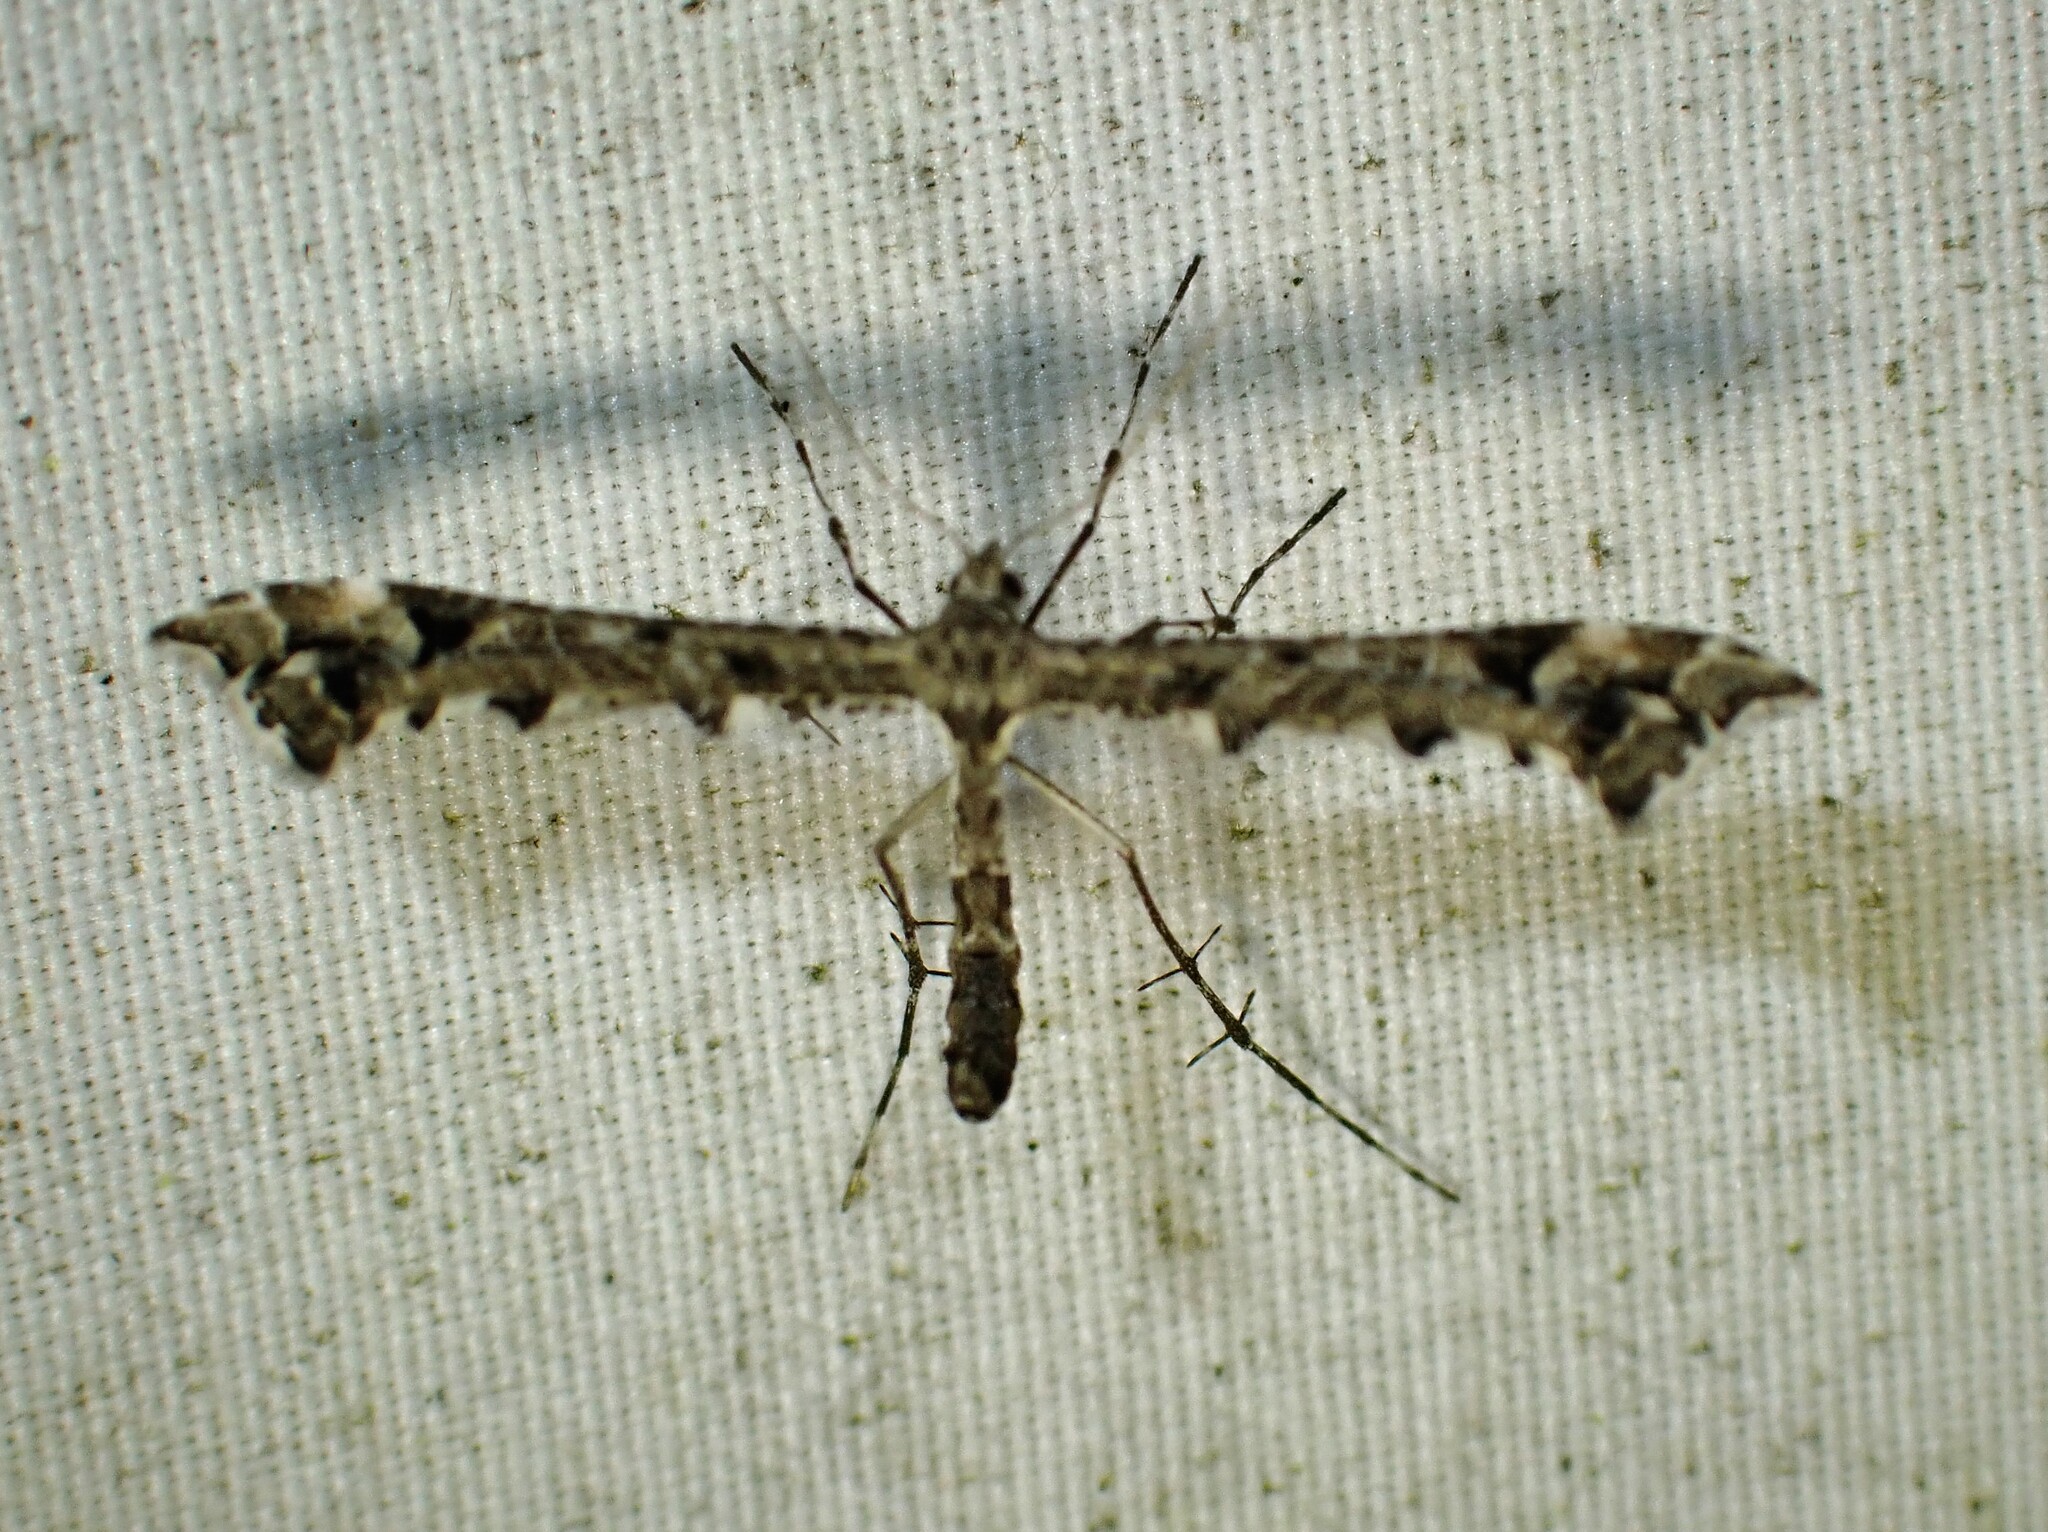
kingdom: Animalia
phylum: Arthropoda
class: Insecta
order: Lepidoptera
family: Pterophoridae
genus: Amblyptilia
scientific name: Amblyptilia pica
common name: Geranium plume moth
